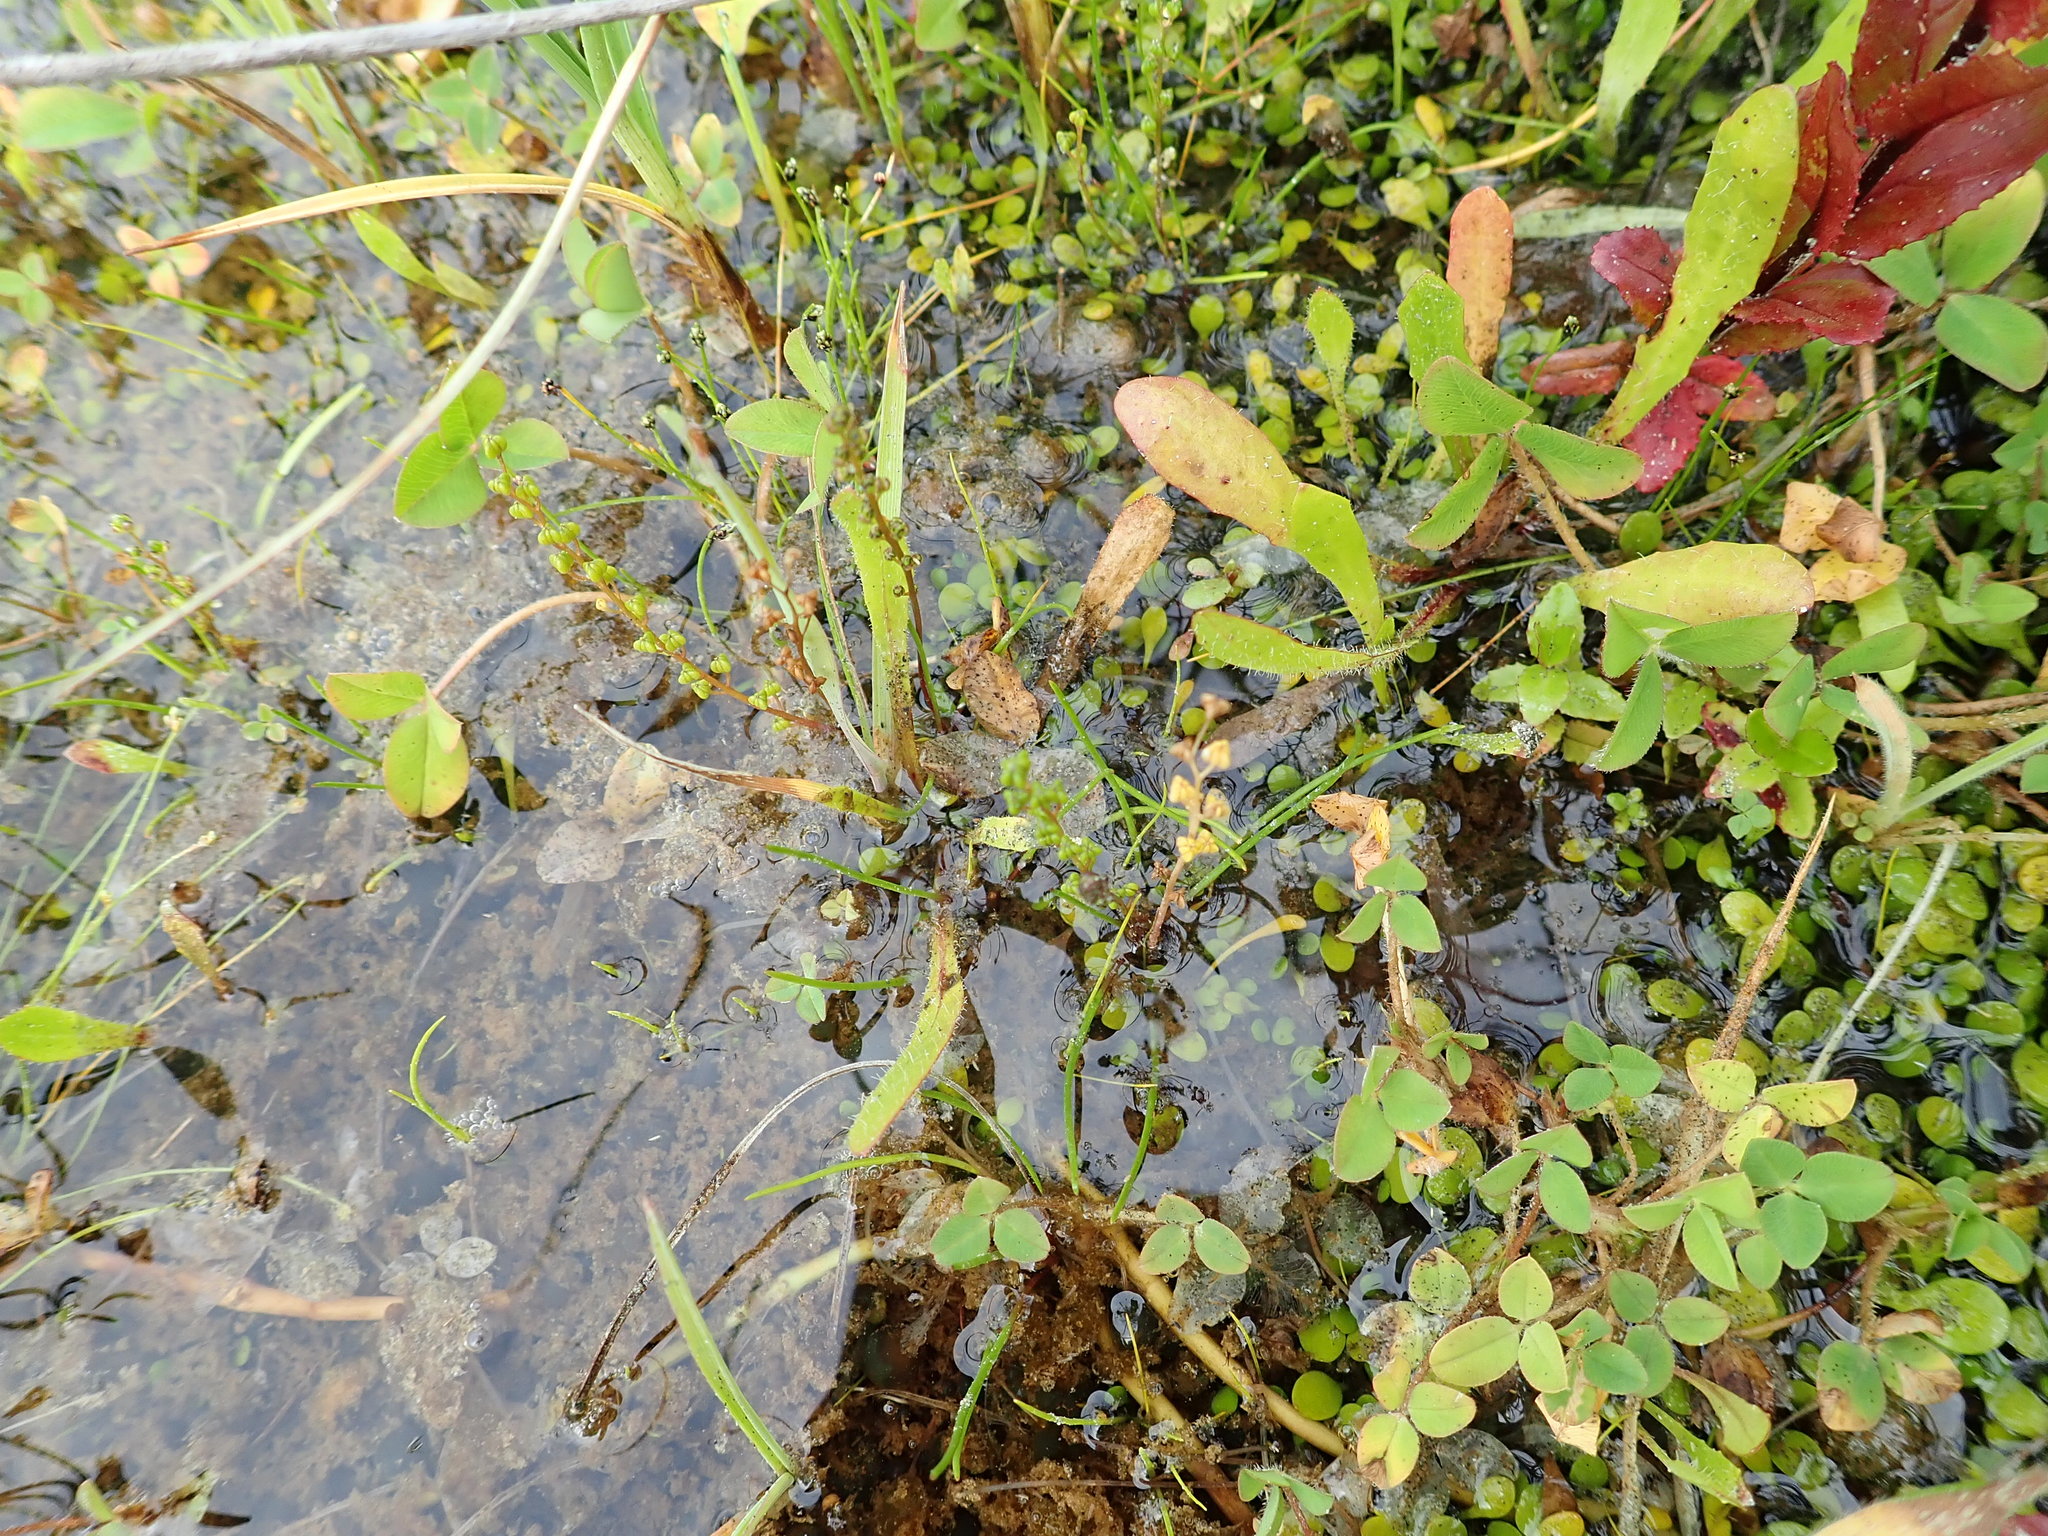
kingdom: Plantae
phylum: Tracheophyta
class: Liliopsida
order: Alismatales
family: Juncaginaceae
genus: Triglochin
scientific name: Triglochin striata
